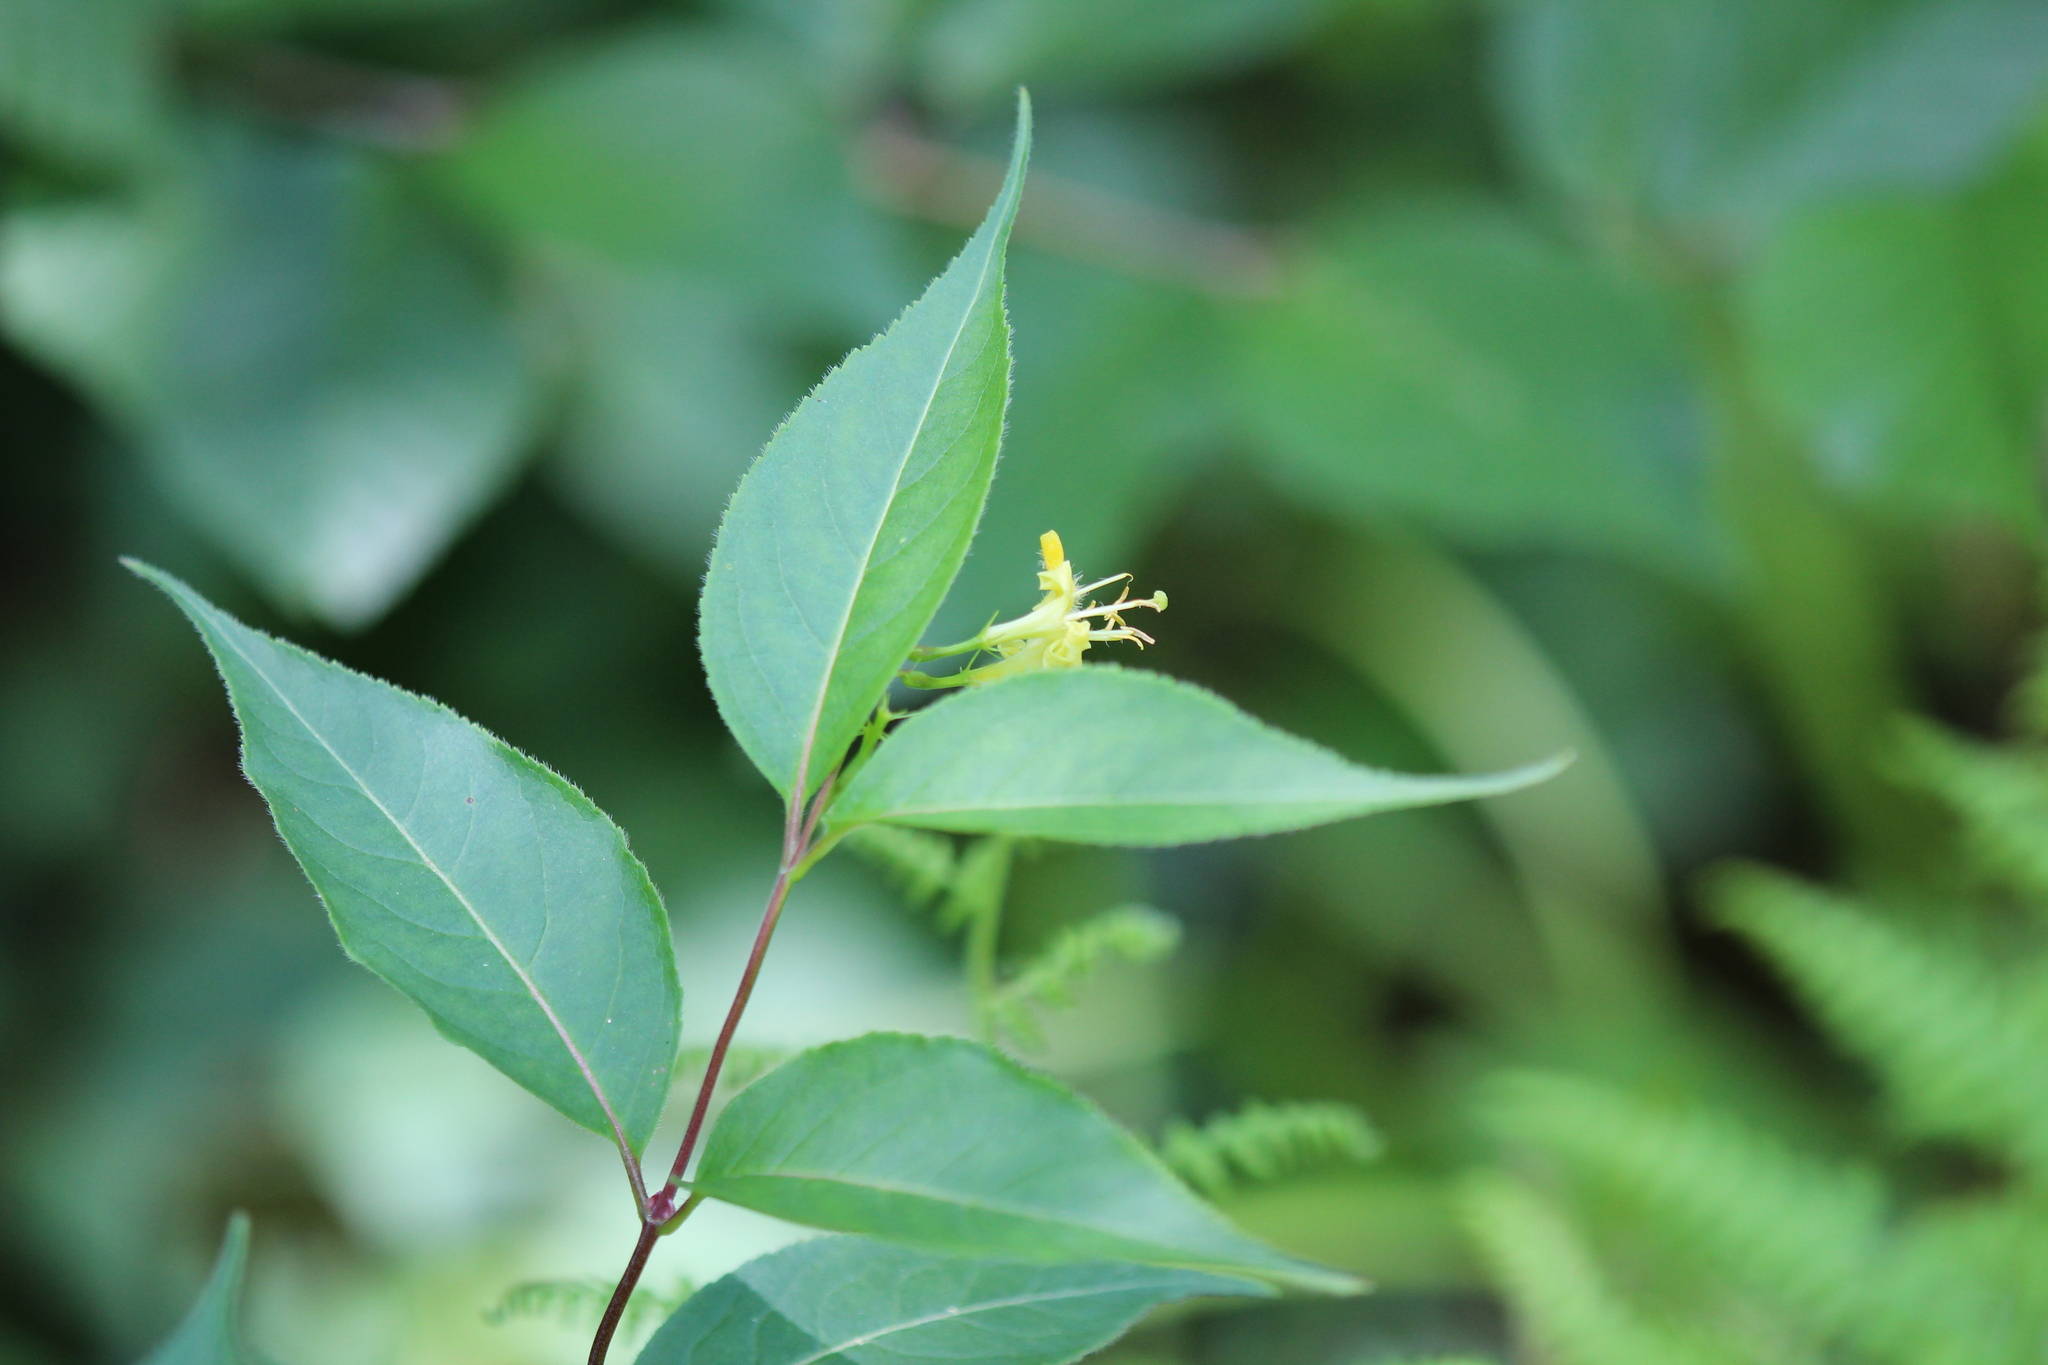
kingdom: Plantae
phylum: Tracheophyta
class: Magnoliopsida
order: Dipsacales
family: Caprifoliaceae
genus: Diervilla
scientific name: Diervilla lonicera
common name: Bush-honeysuckle
